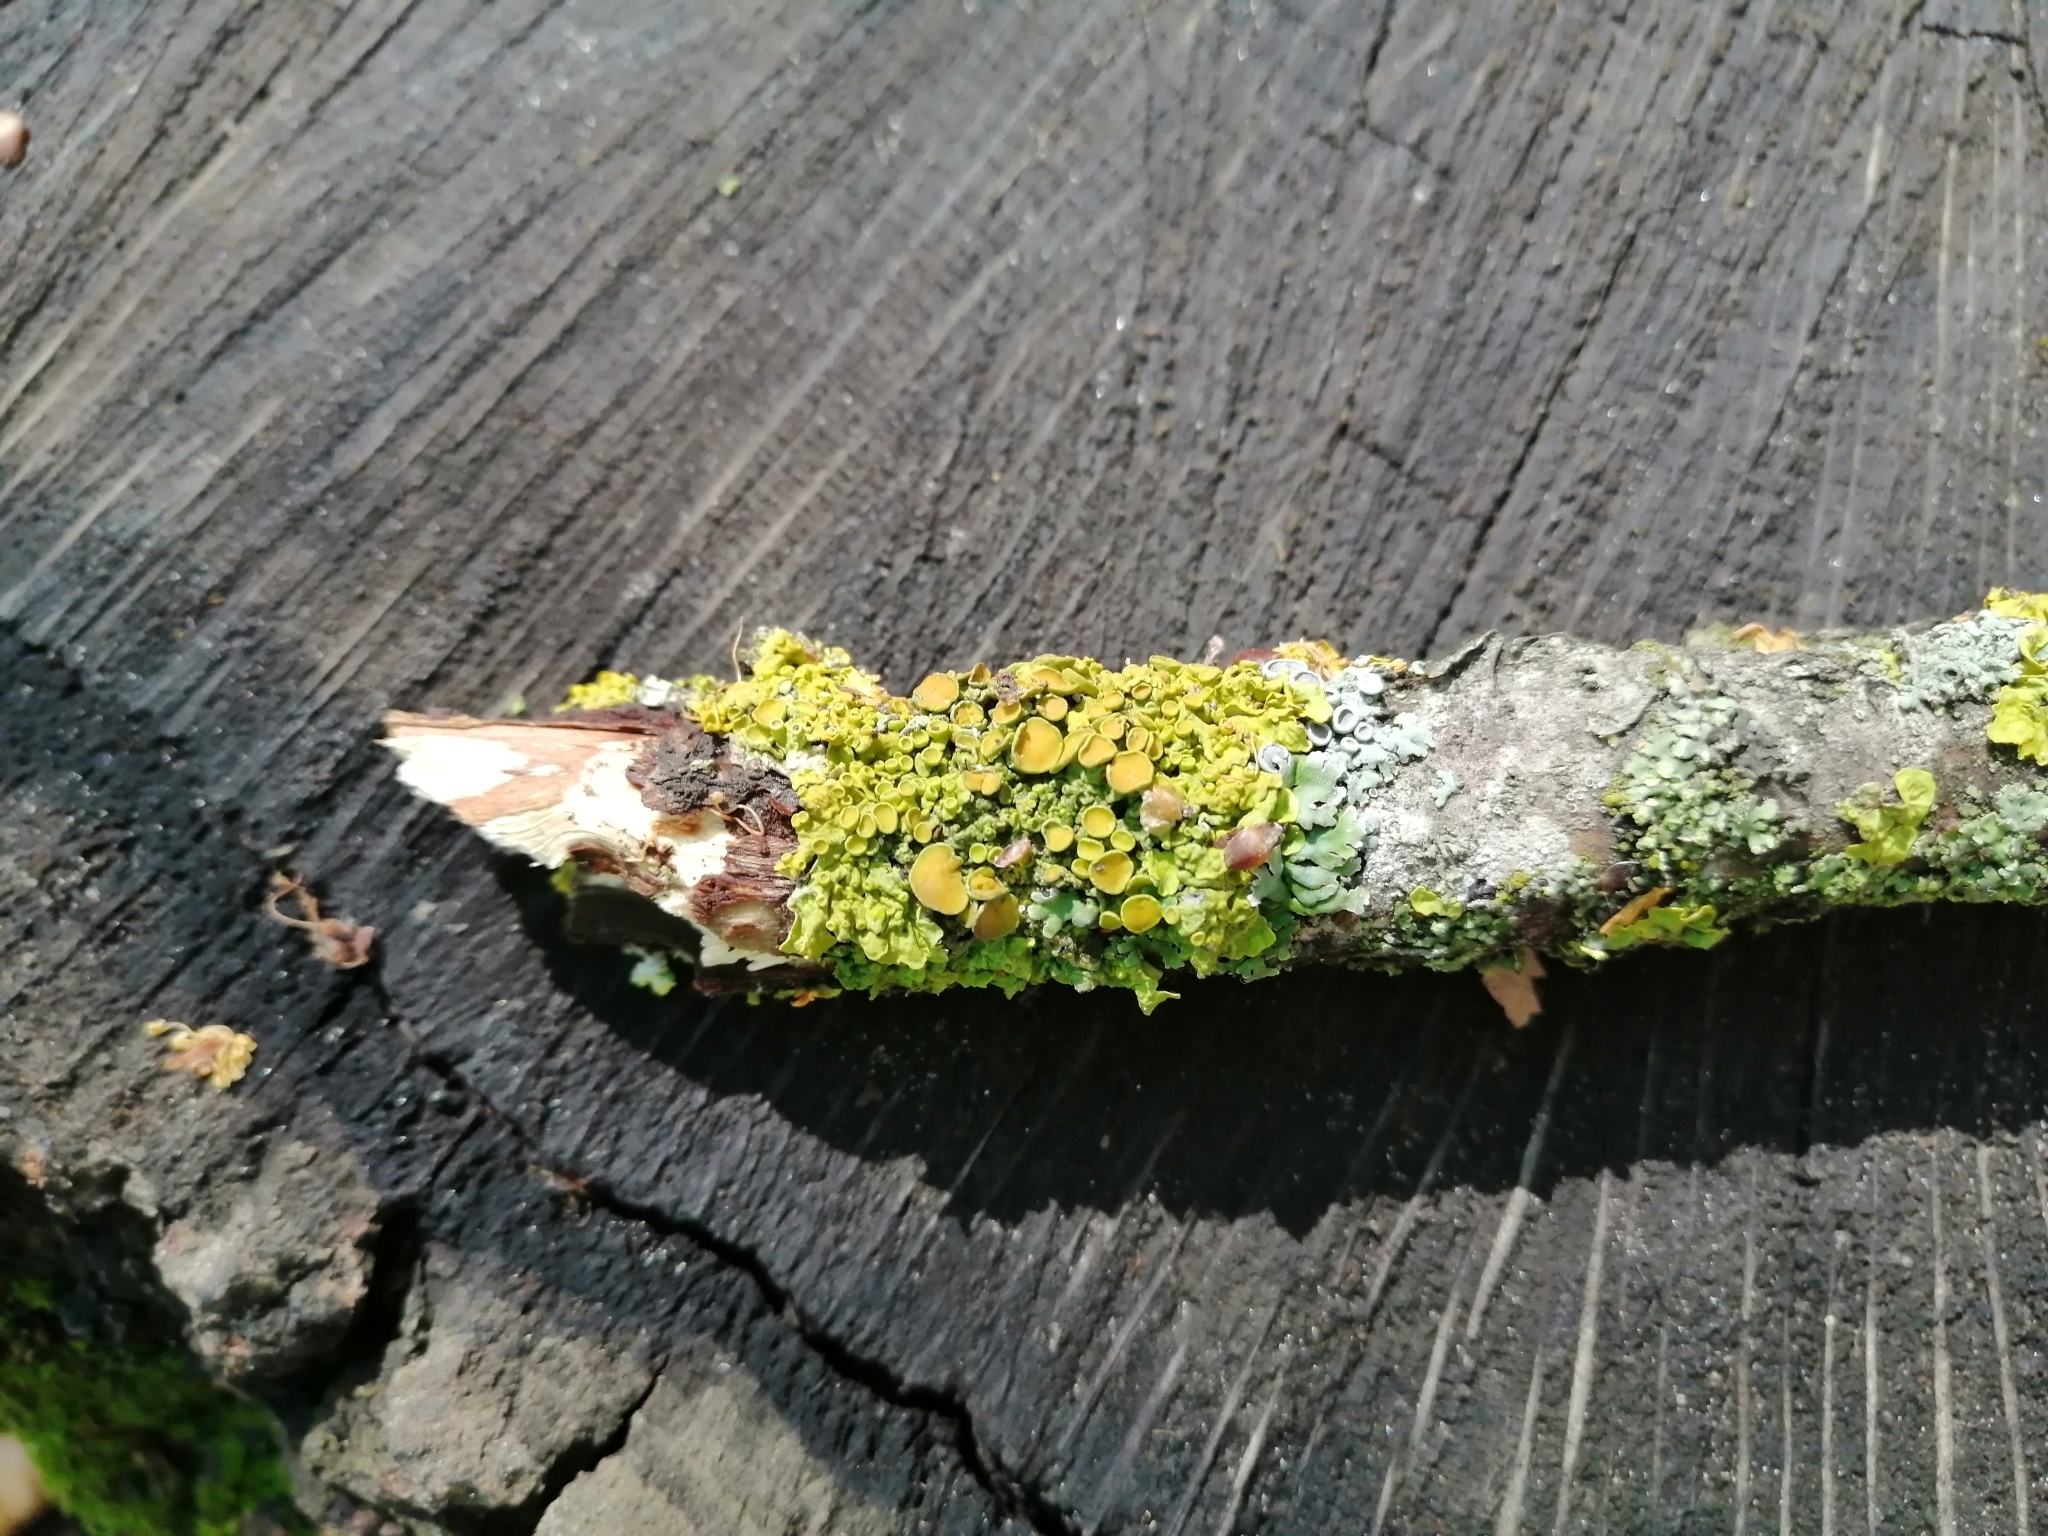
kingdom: Fungi
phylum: Ascomycota
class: Lecanoromycetes
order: Teloschistales
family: Teloschistaceae
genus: Xanthoria
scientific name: Xanthoria parietina
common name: Common orange lichen
